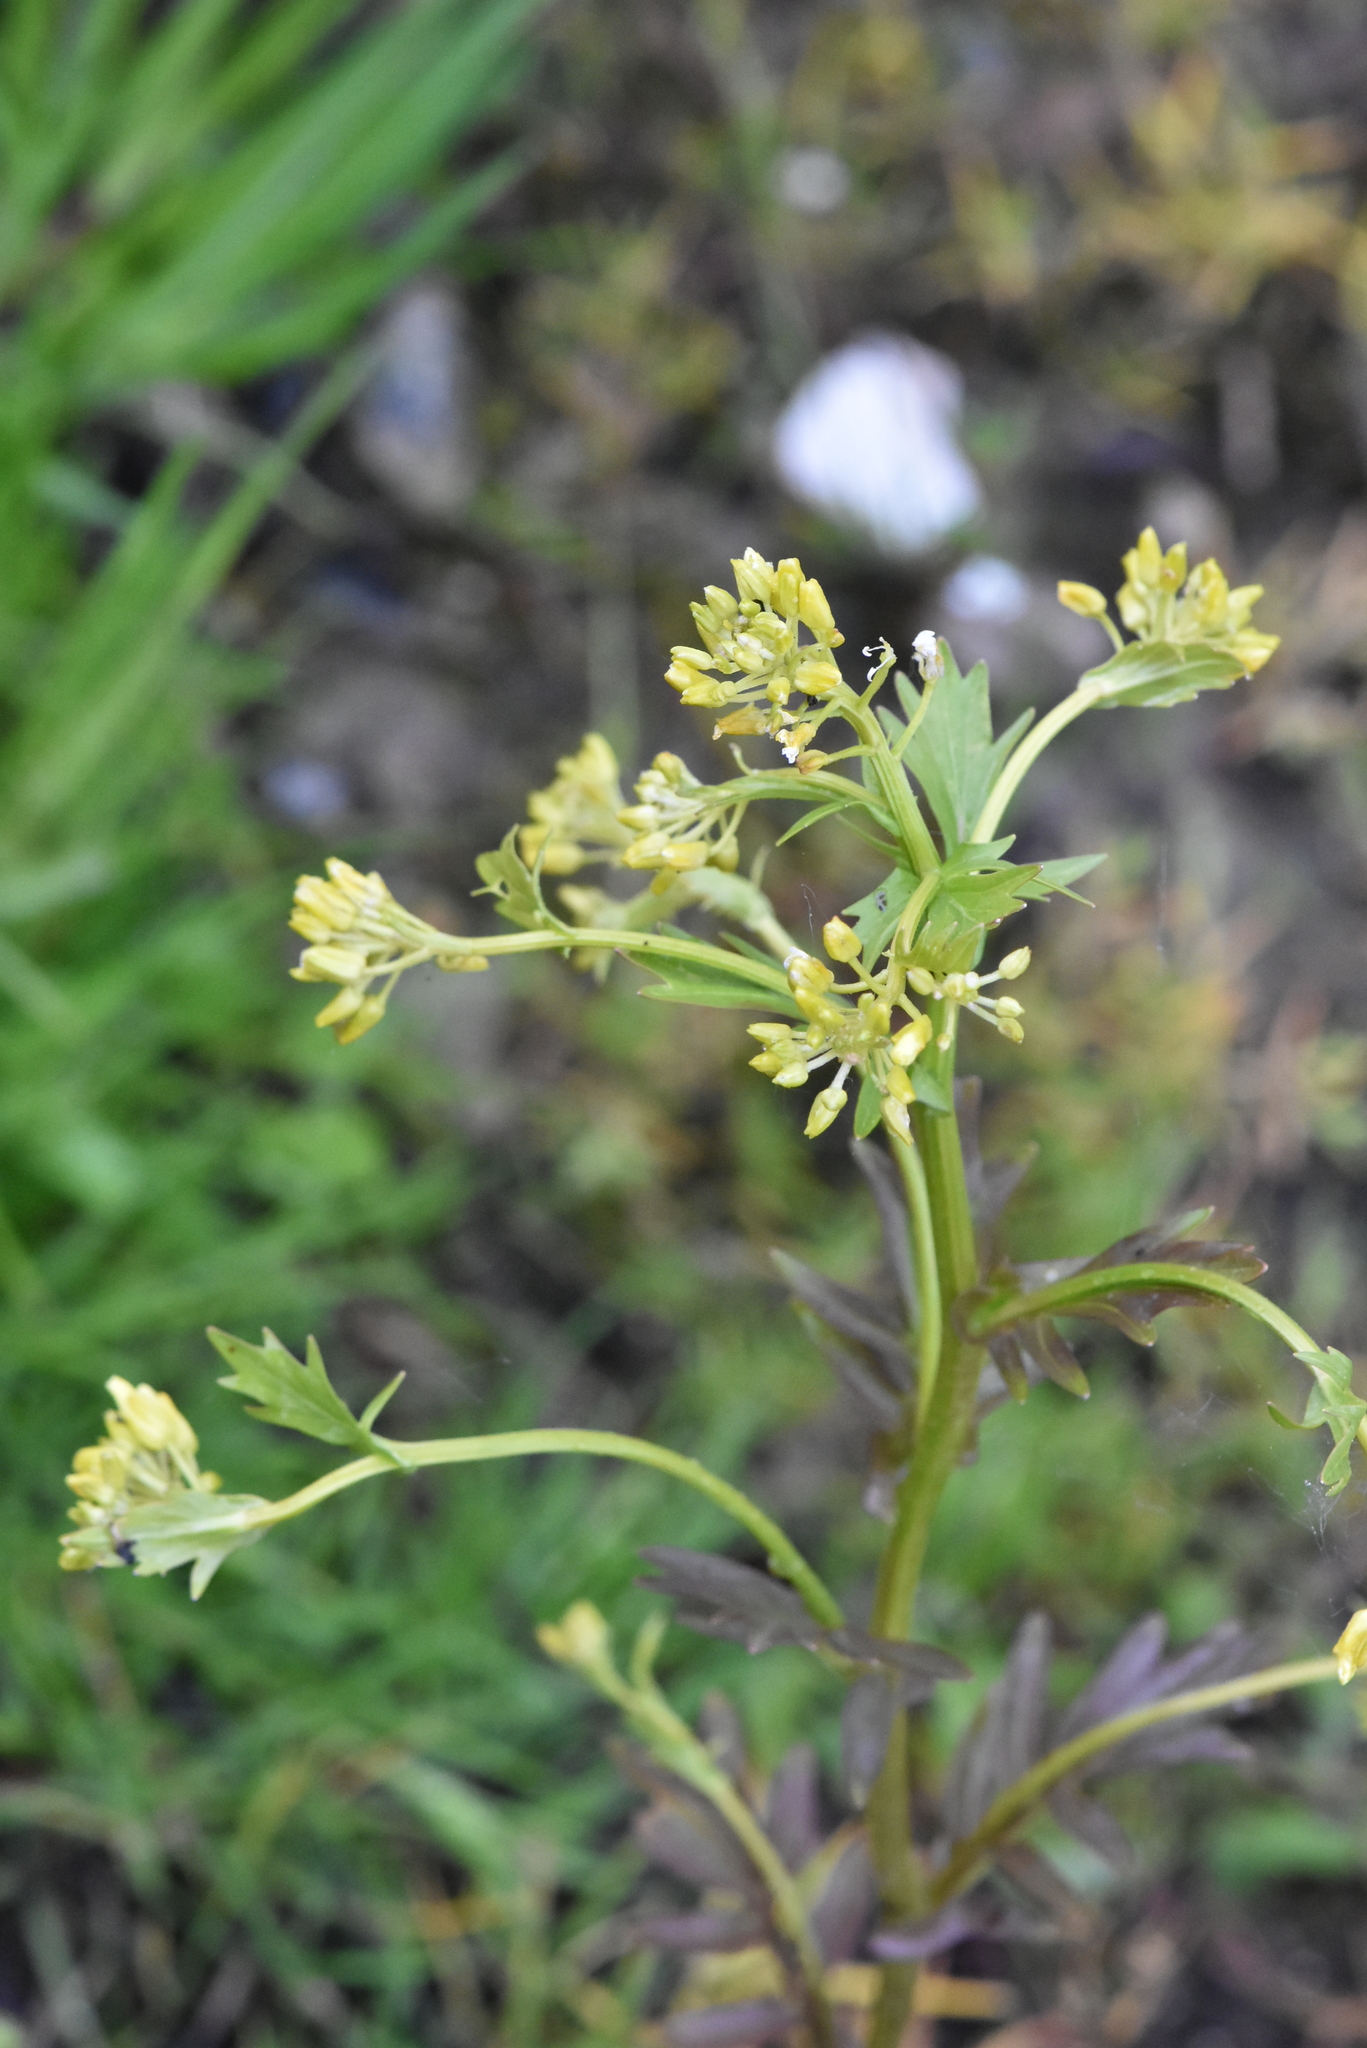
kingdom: Plantae
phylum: Tracheophyta
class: Magnoliopsida
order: Brassicales
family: Brassicaceae
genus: Barbarea
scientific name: Barbarea vulgaris
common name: Cressy-greens
